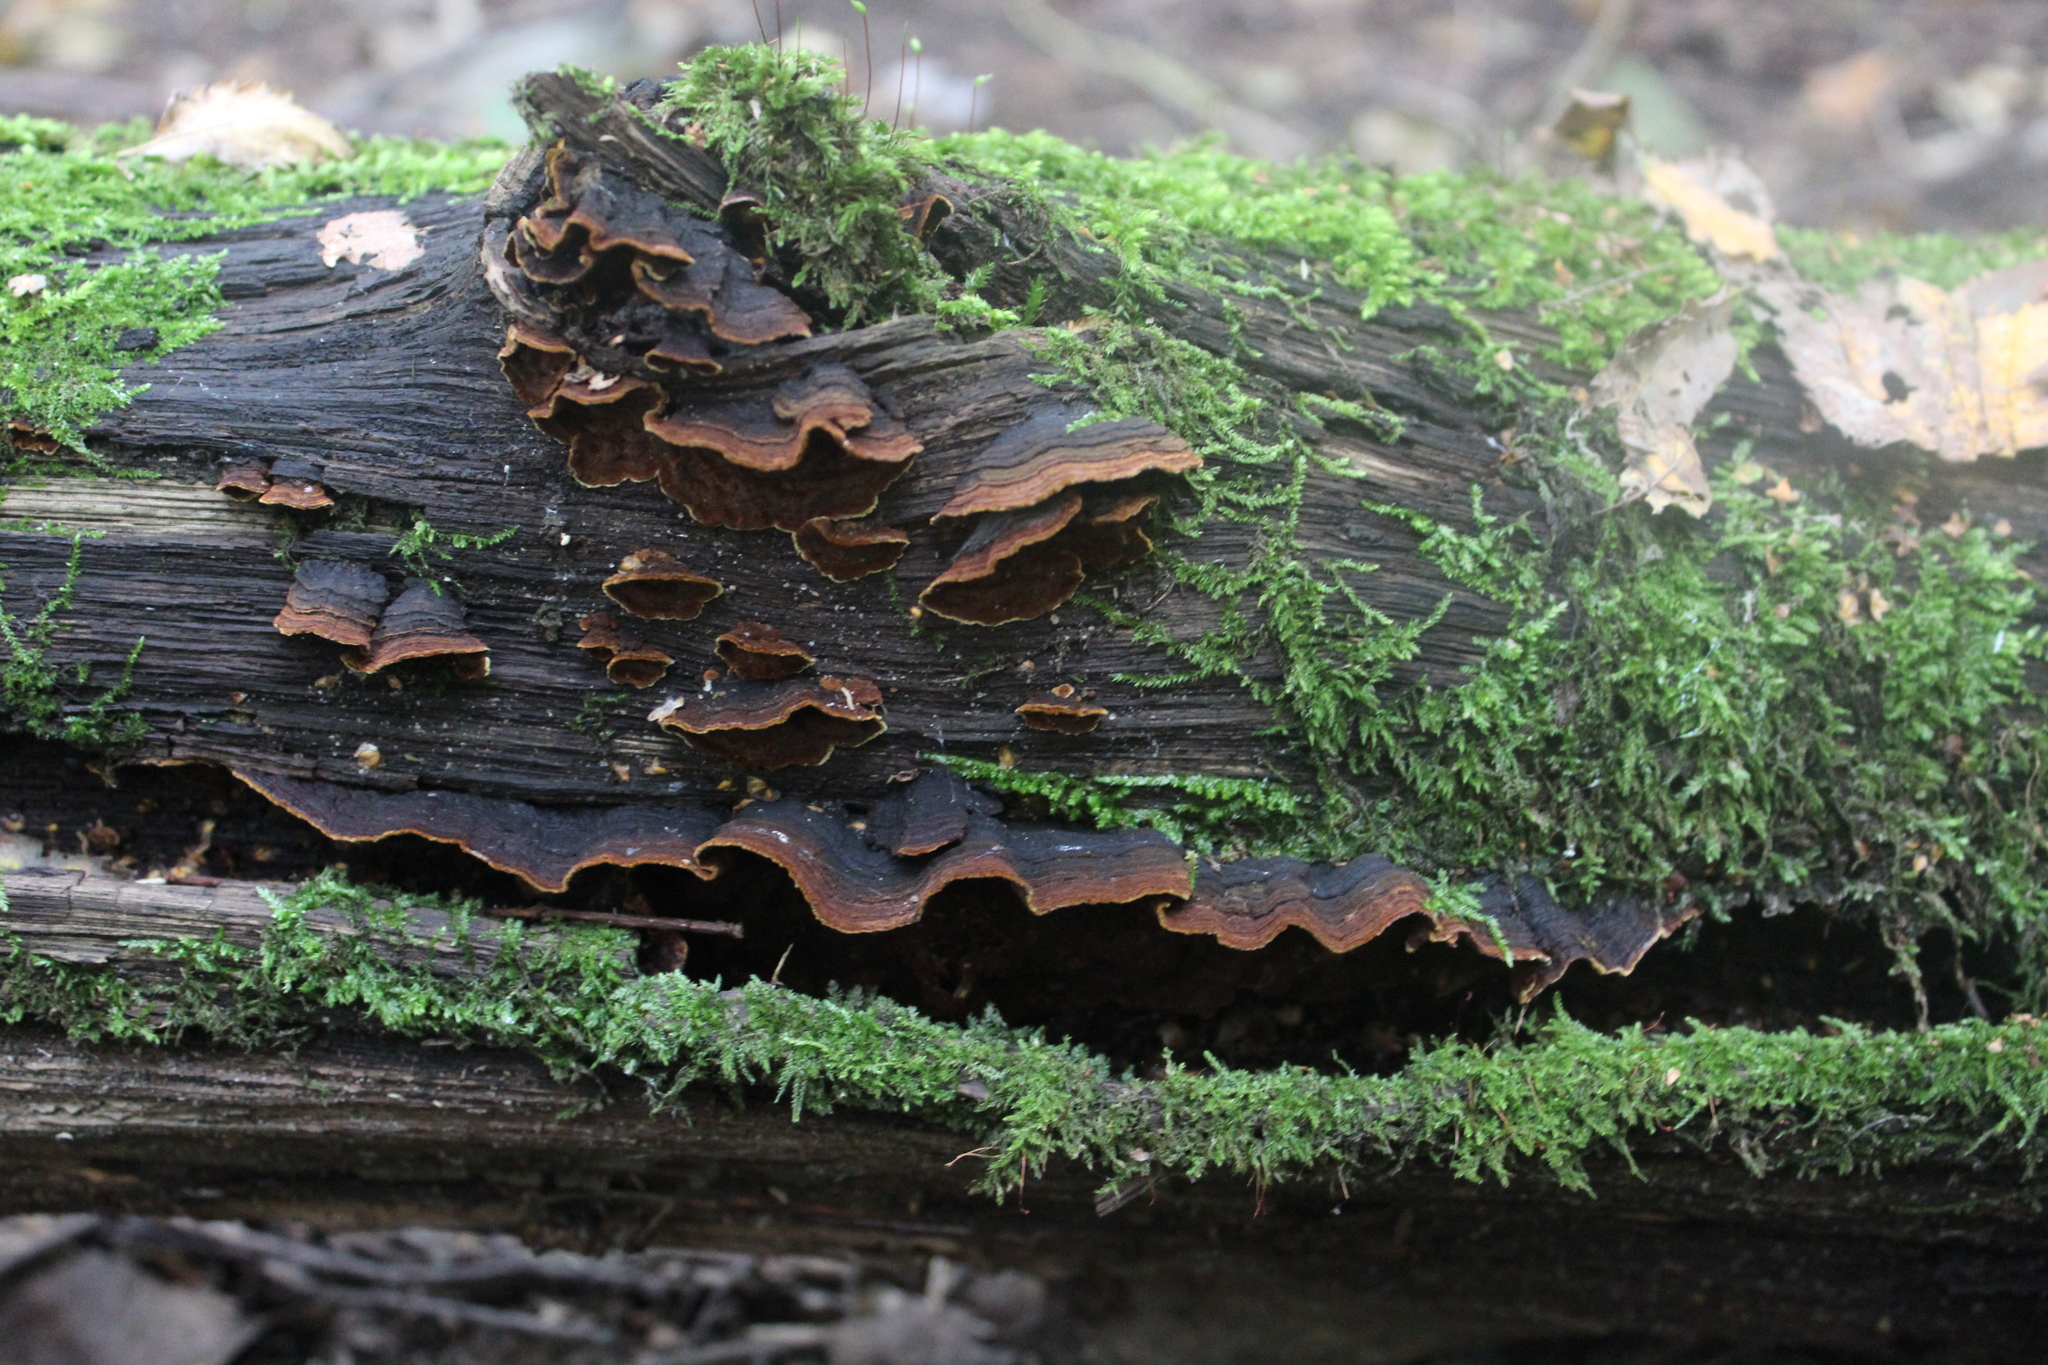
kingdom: Fungi
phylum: Basidiomycota
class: Agaricomycetes
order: Hymenochaetales
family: Hymenochaetaceae
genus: Hymenochaete
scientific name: Hymenochaete rubiginosa
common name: Oak curtain crust
